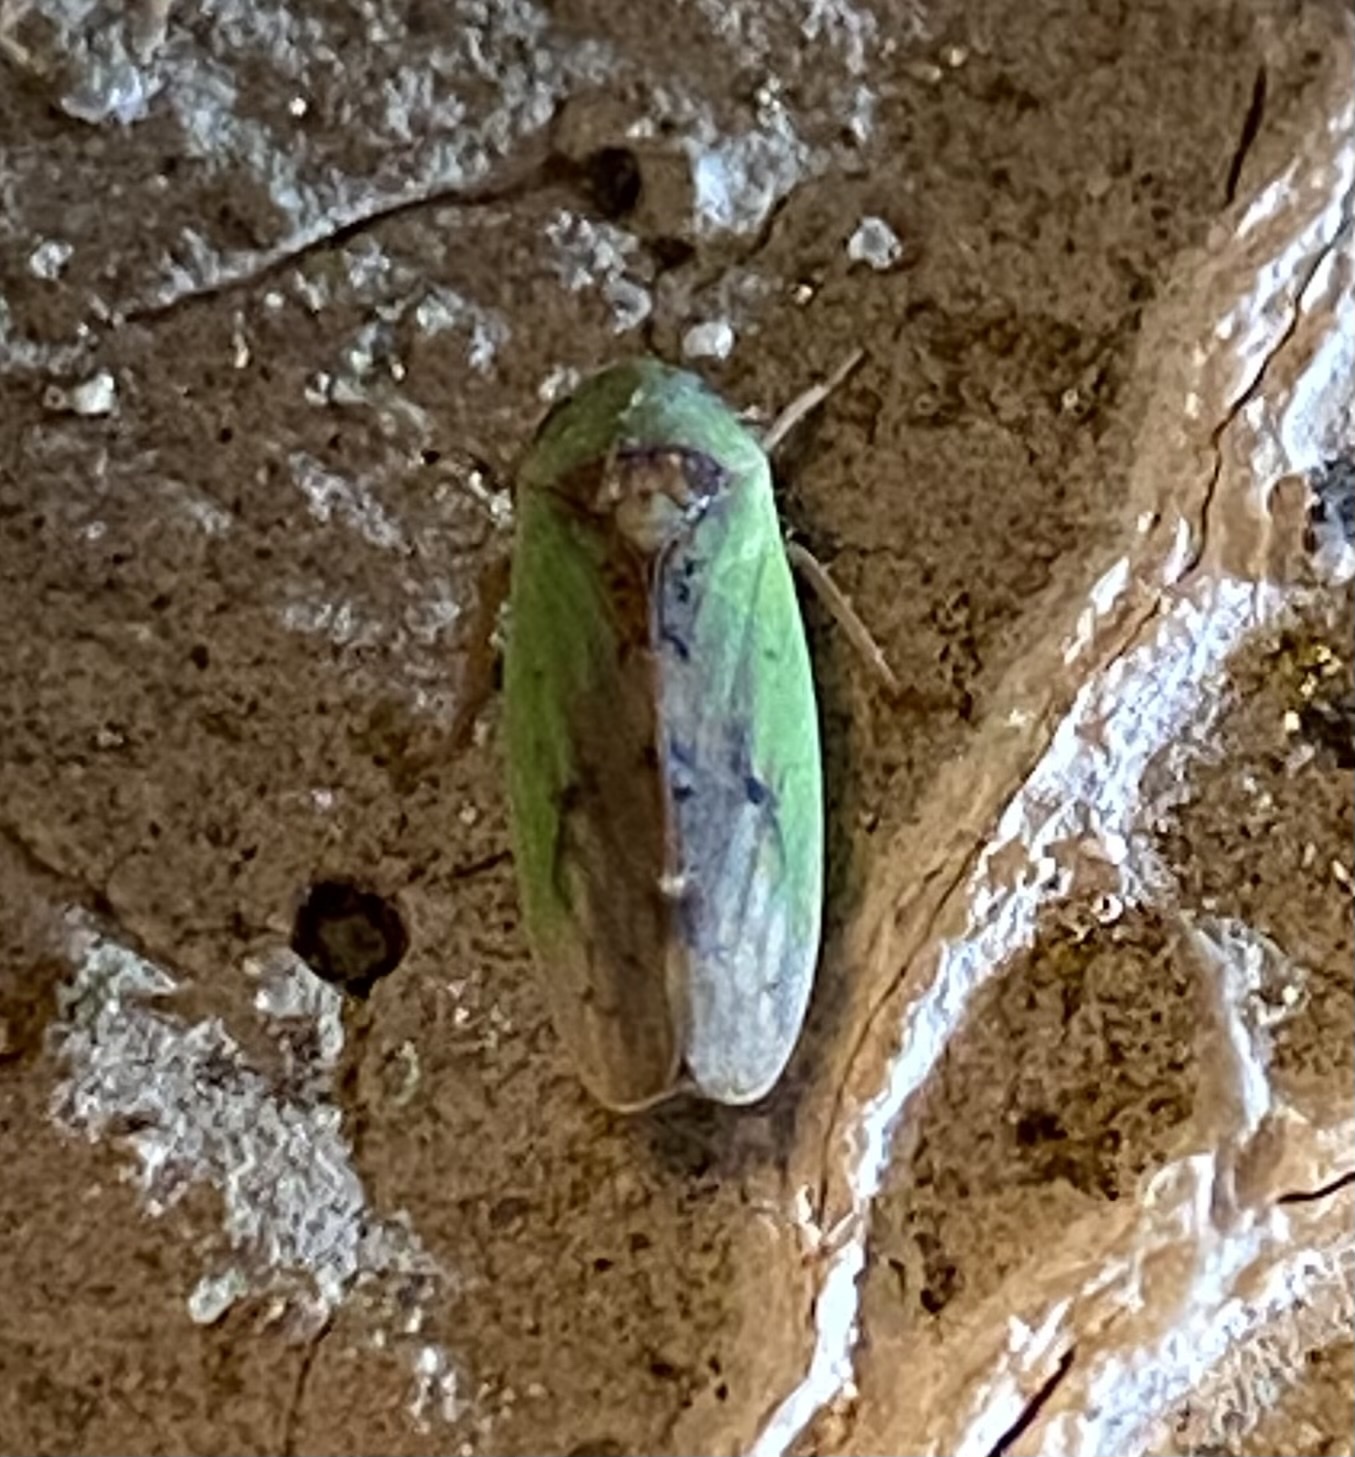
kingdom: Animalia
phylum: Arthropoda
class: Insecta
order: Hemiptera
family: Cicadellidae
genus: Ponana
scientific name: Ponana pectoralis
